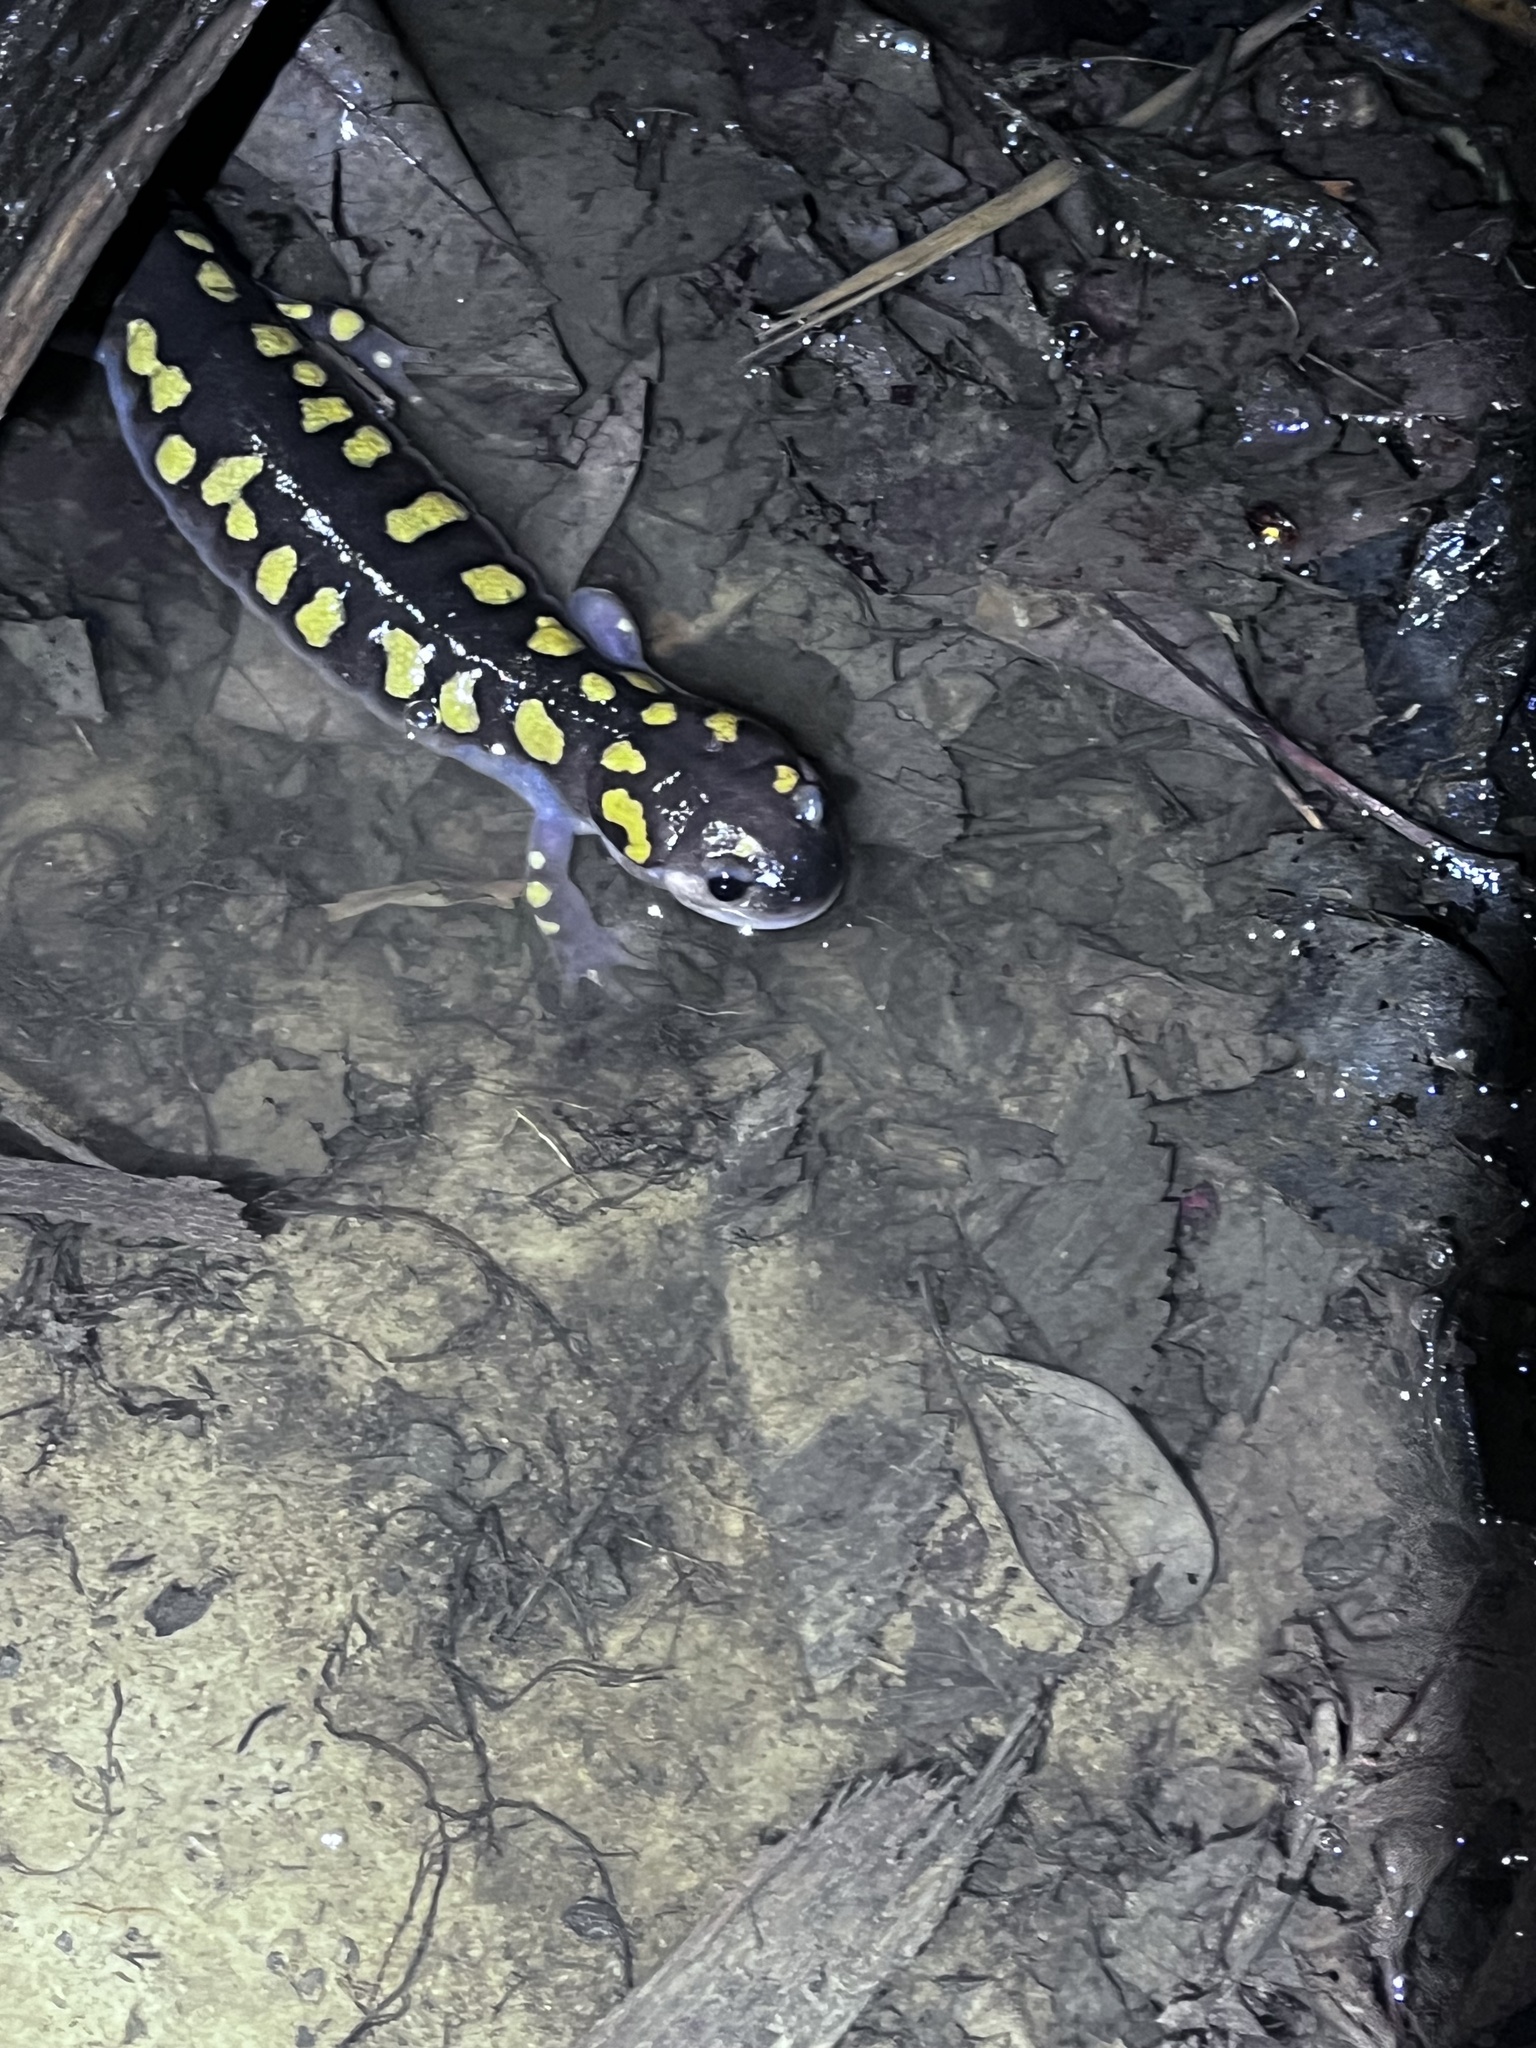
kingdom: Animalia
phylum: Chordata
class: Amphibia
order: Caudata
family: Ambystomatidae
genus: Ambystoma
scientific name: Ambystoma maculatum
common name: Spotted salamander
